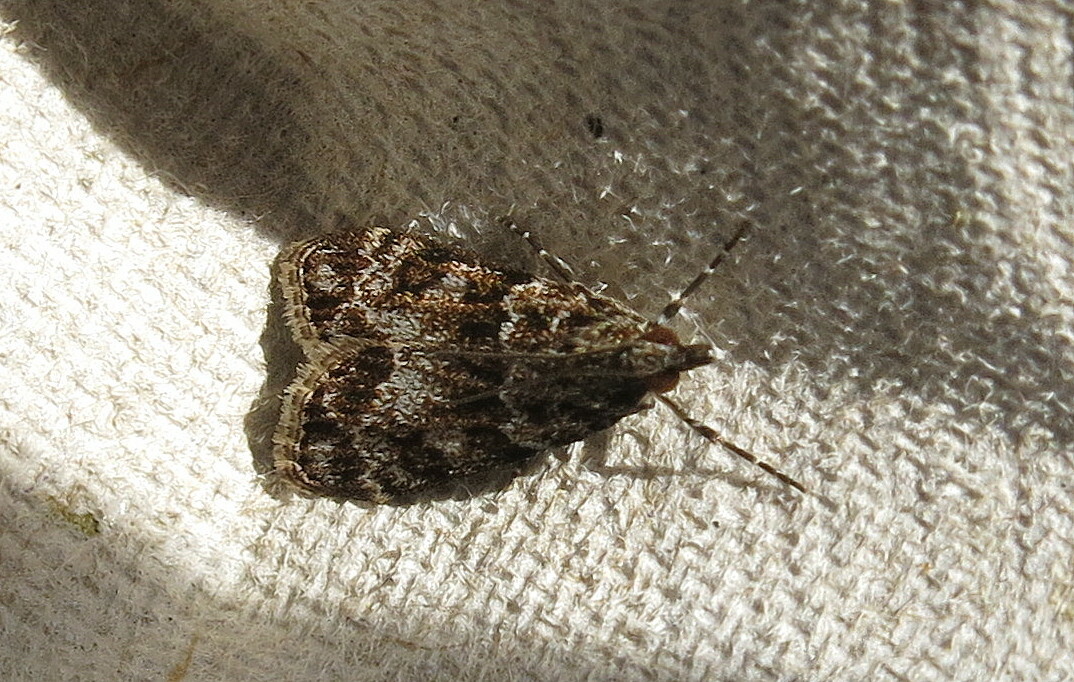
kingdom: Animalia
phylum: Arthropoda
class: Insecta
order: Lepidoptera
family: Crambidae
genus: Eudonia
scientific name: Eudonia mercurella
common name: Small grey
